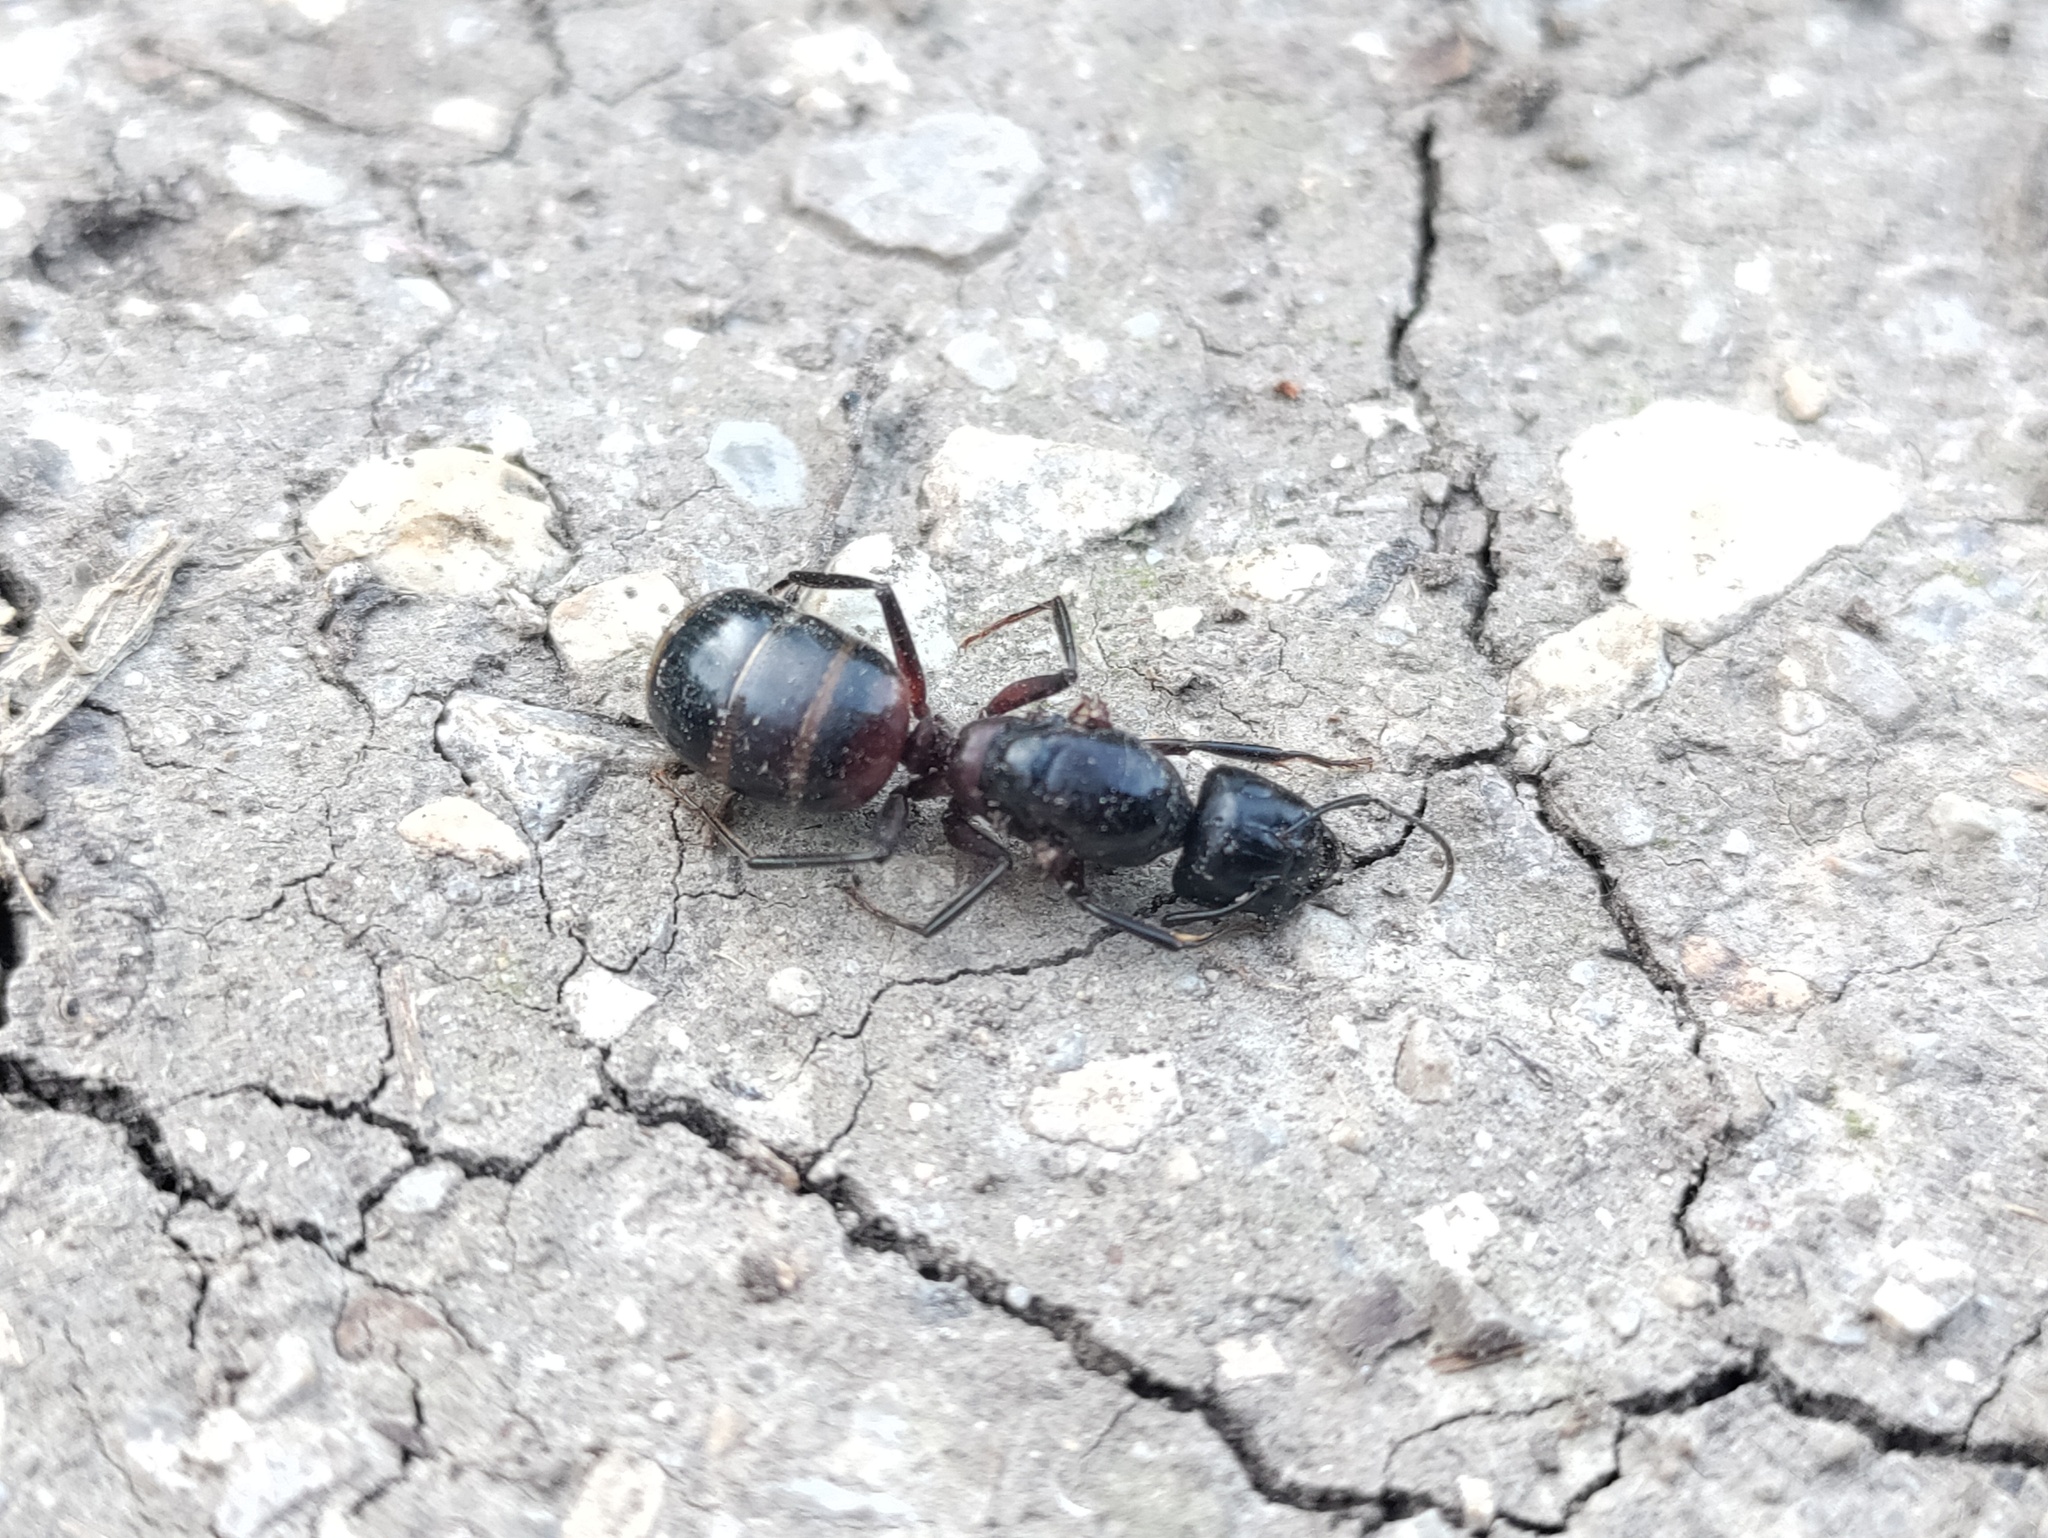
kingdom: Animalia
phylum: Arthropoda
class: Insecta
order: Hymenoptera
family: Formicidae
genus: Camponotus
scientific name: Camponotus ligniperdus
